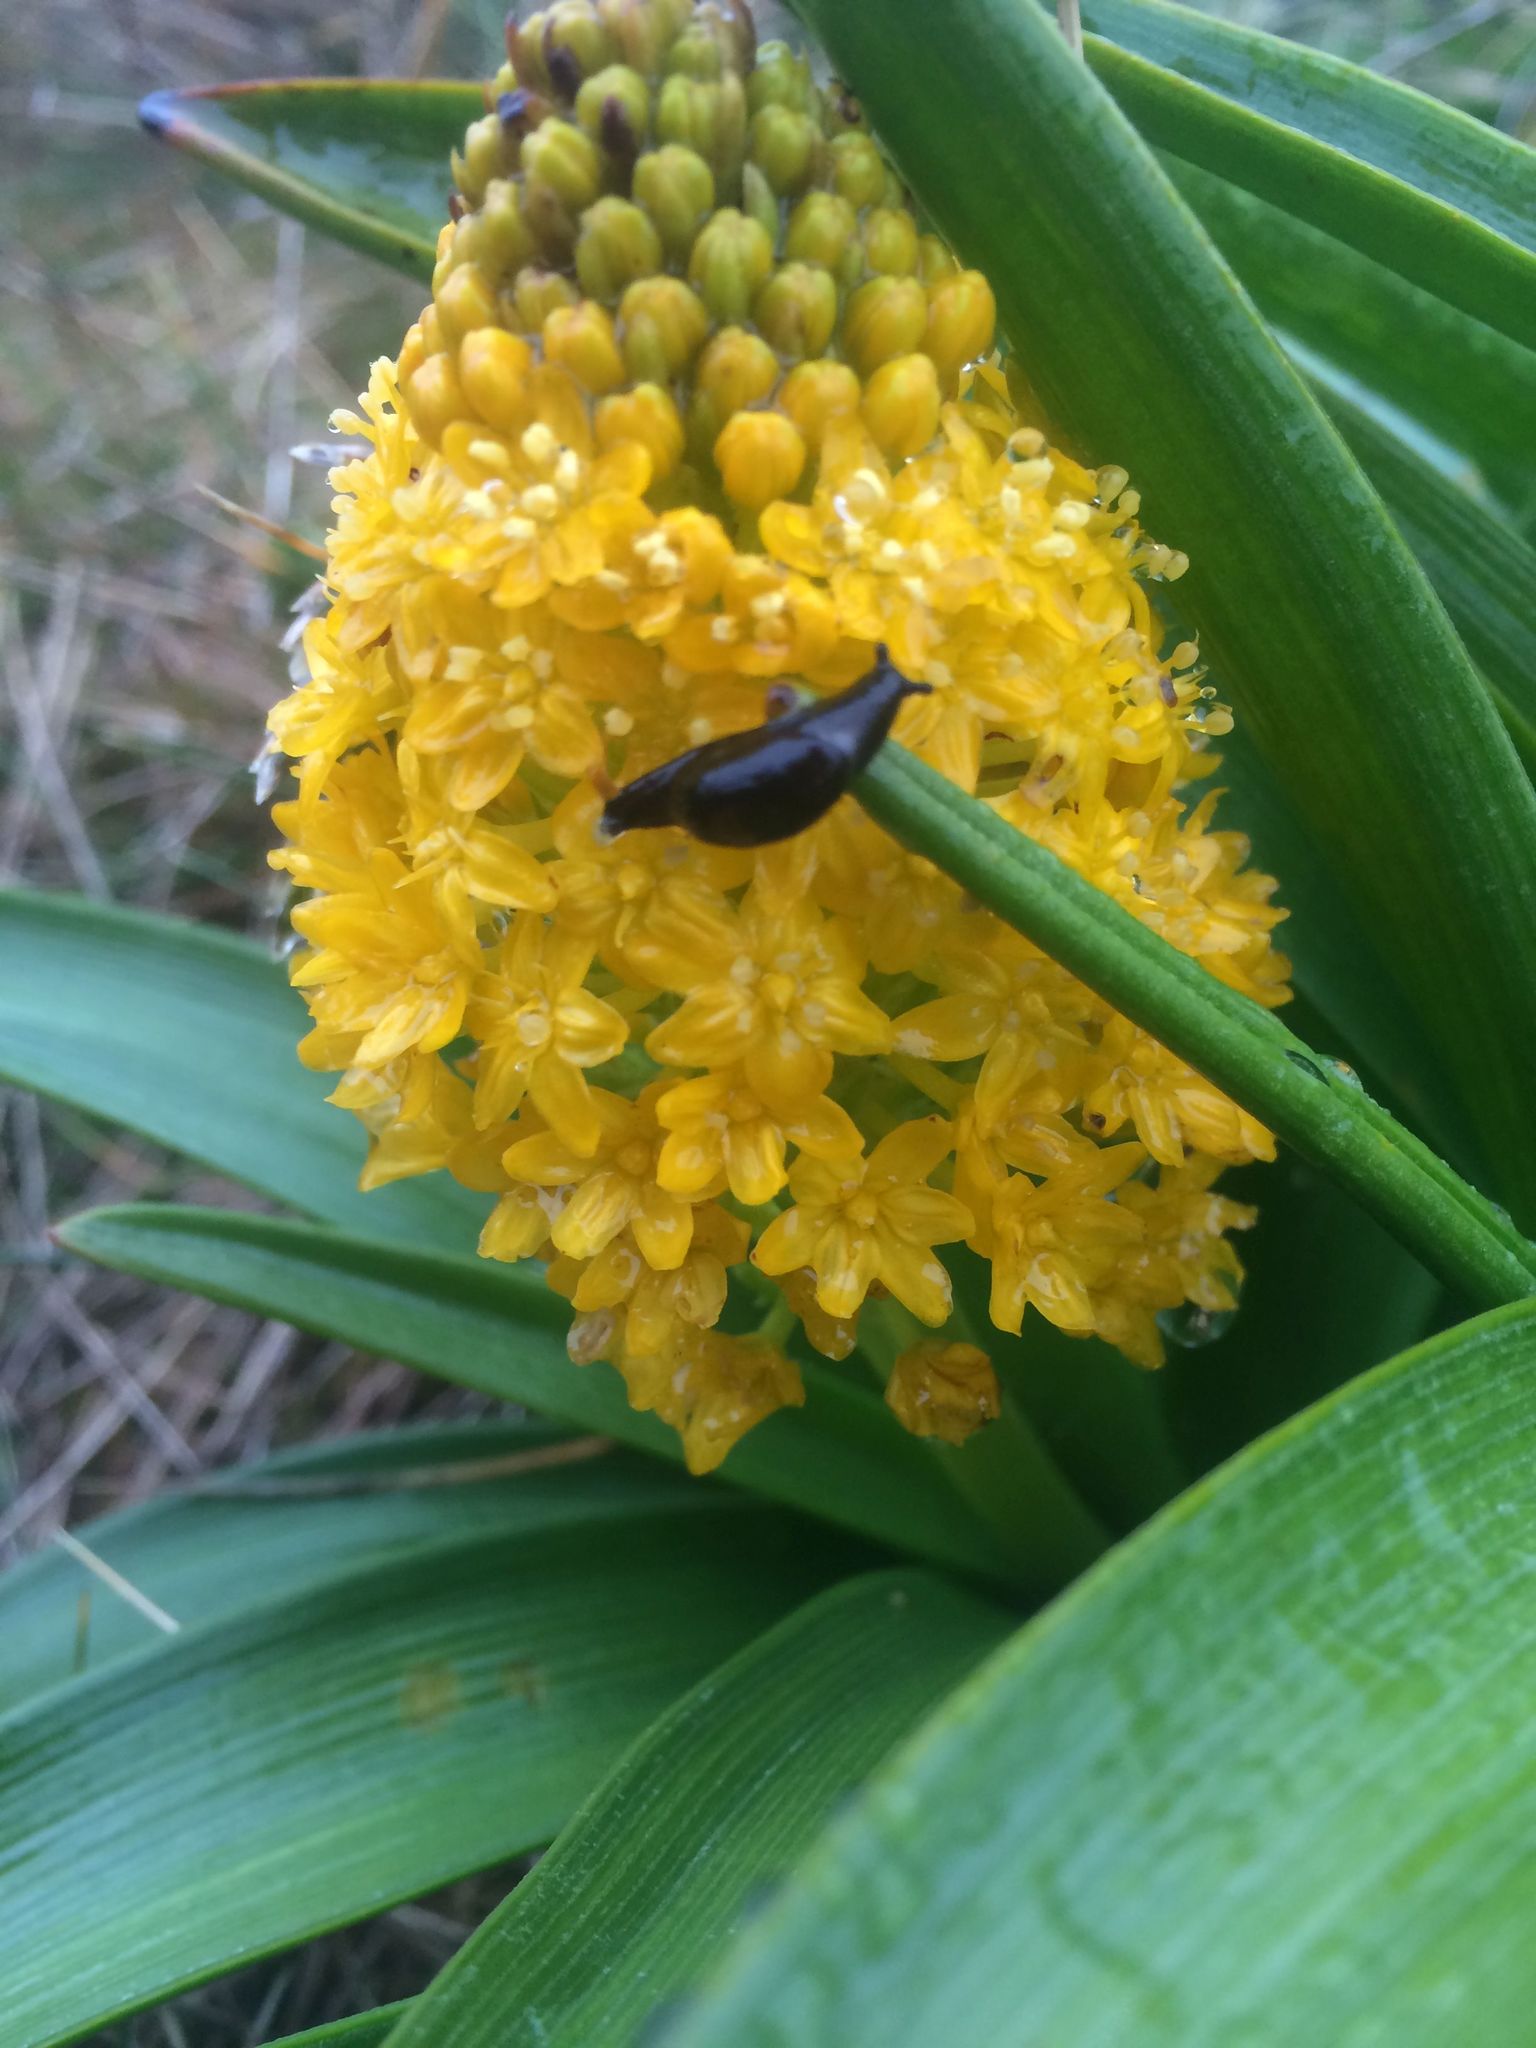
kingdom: Animalia
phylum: Mollusca
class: Gastropoda
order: Stylommatophora
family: Charopidae
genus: Ranfurlya
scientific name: Ranfurlya constanceae
